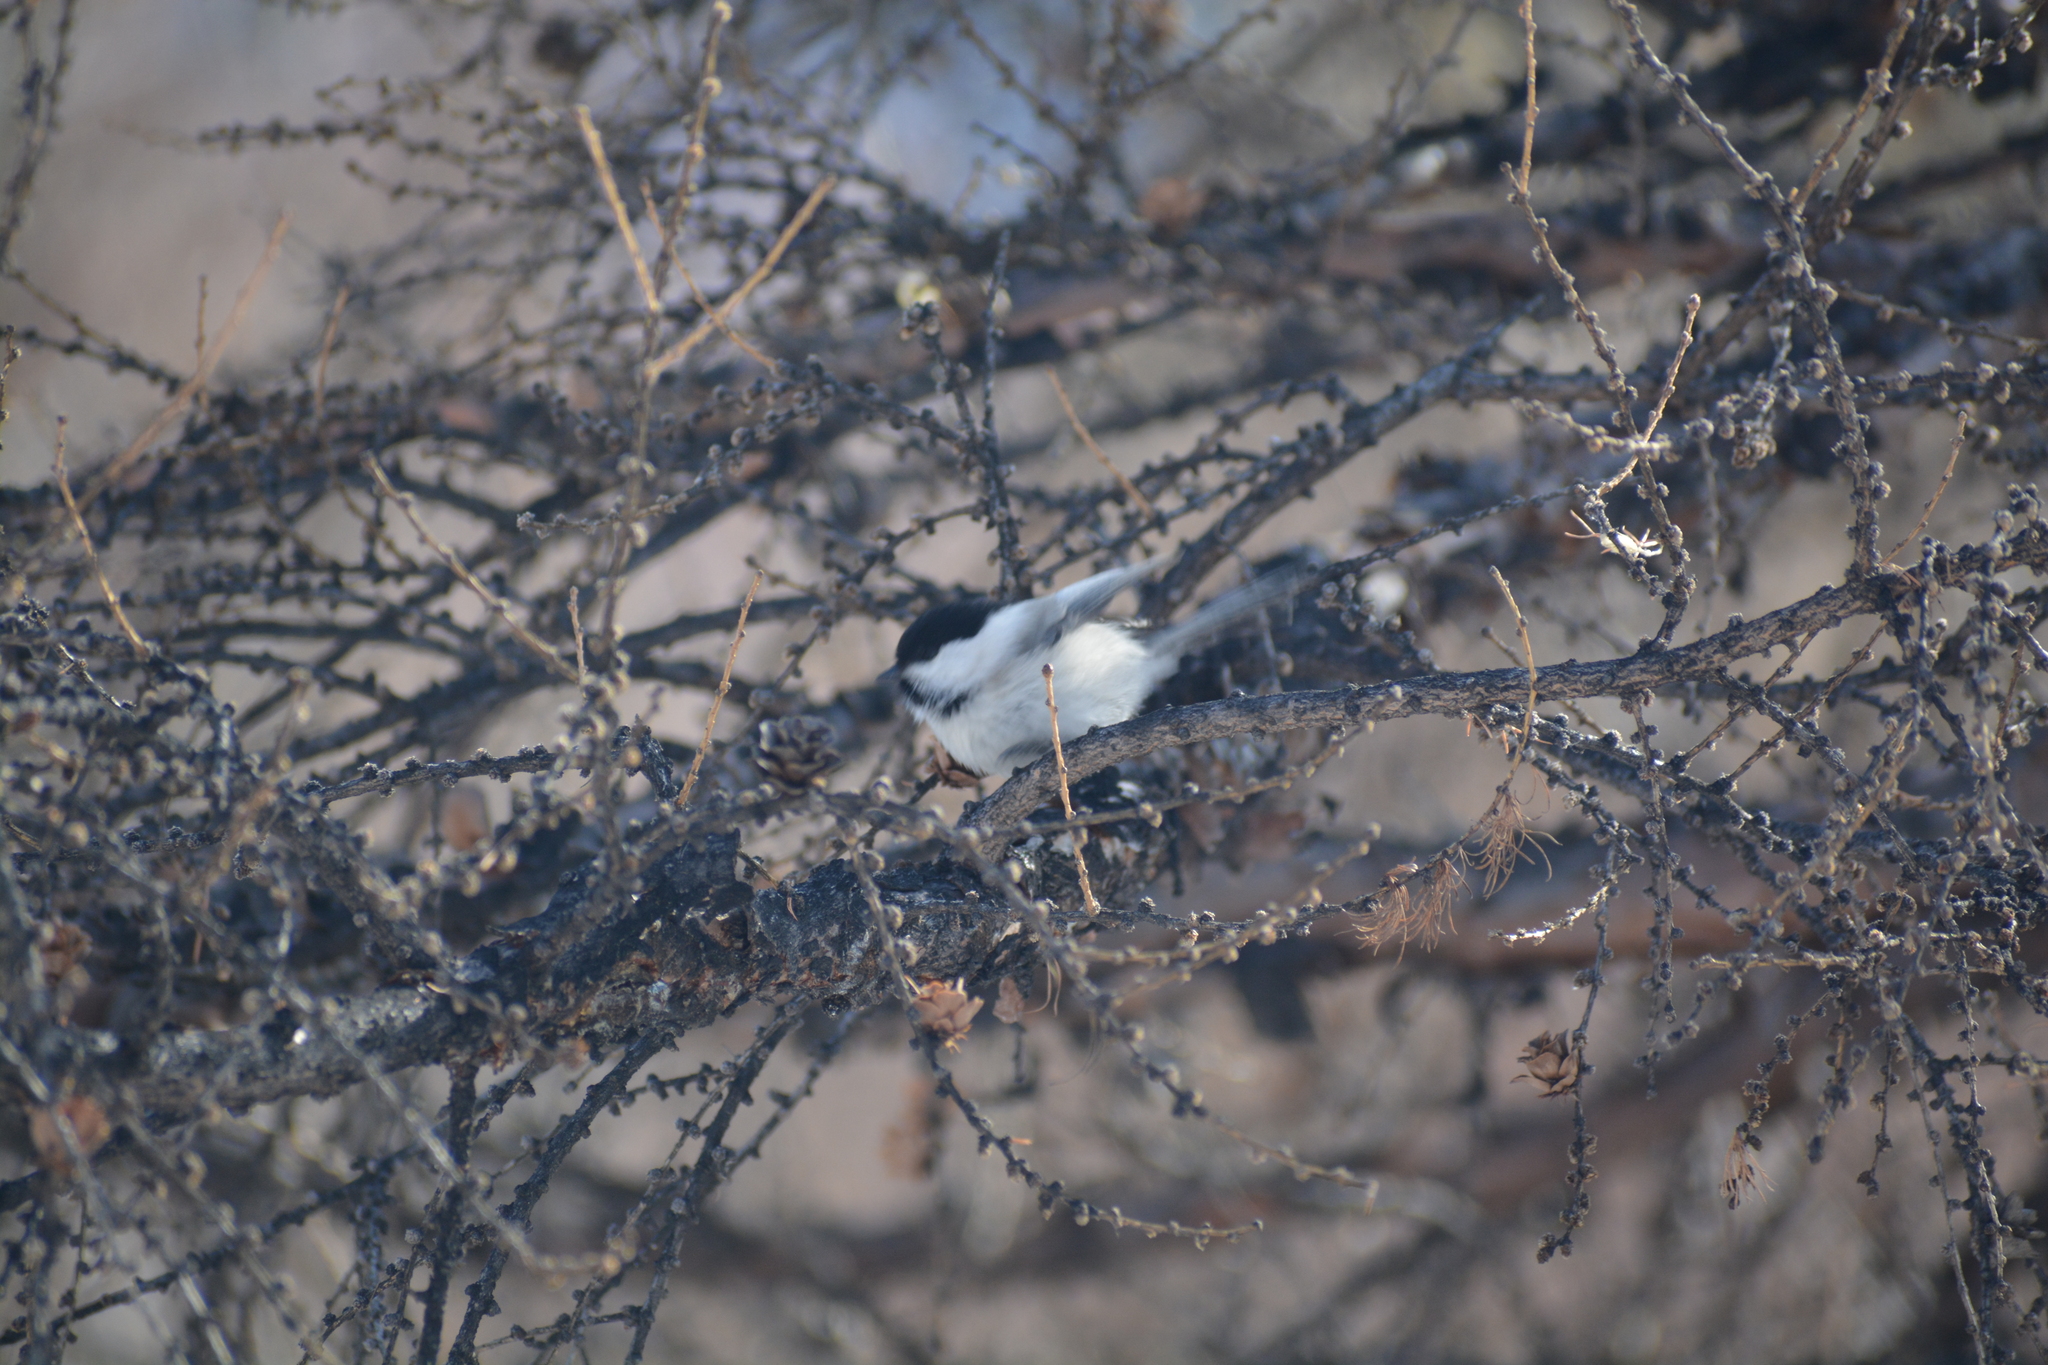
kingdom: Animalia
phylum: Chordata
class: Aves
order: Passeriformes
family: Paridae
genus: Poecile
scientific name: Poecile montanus
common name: Willow tit
